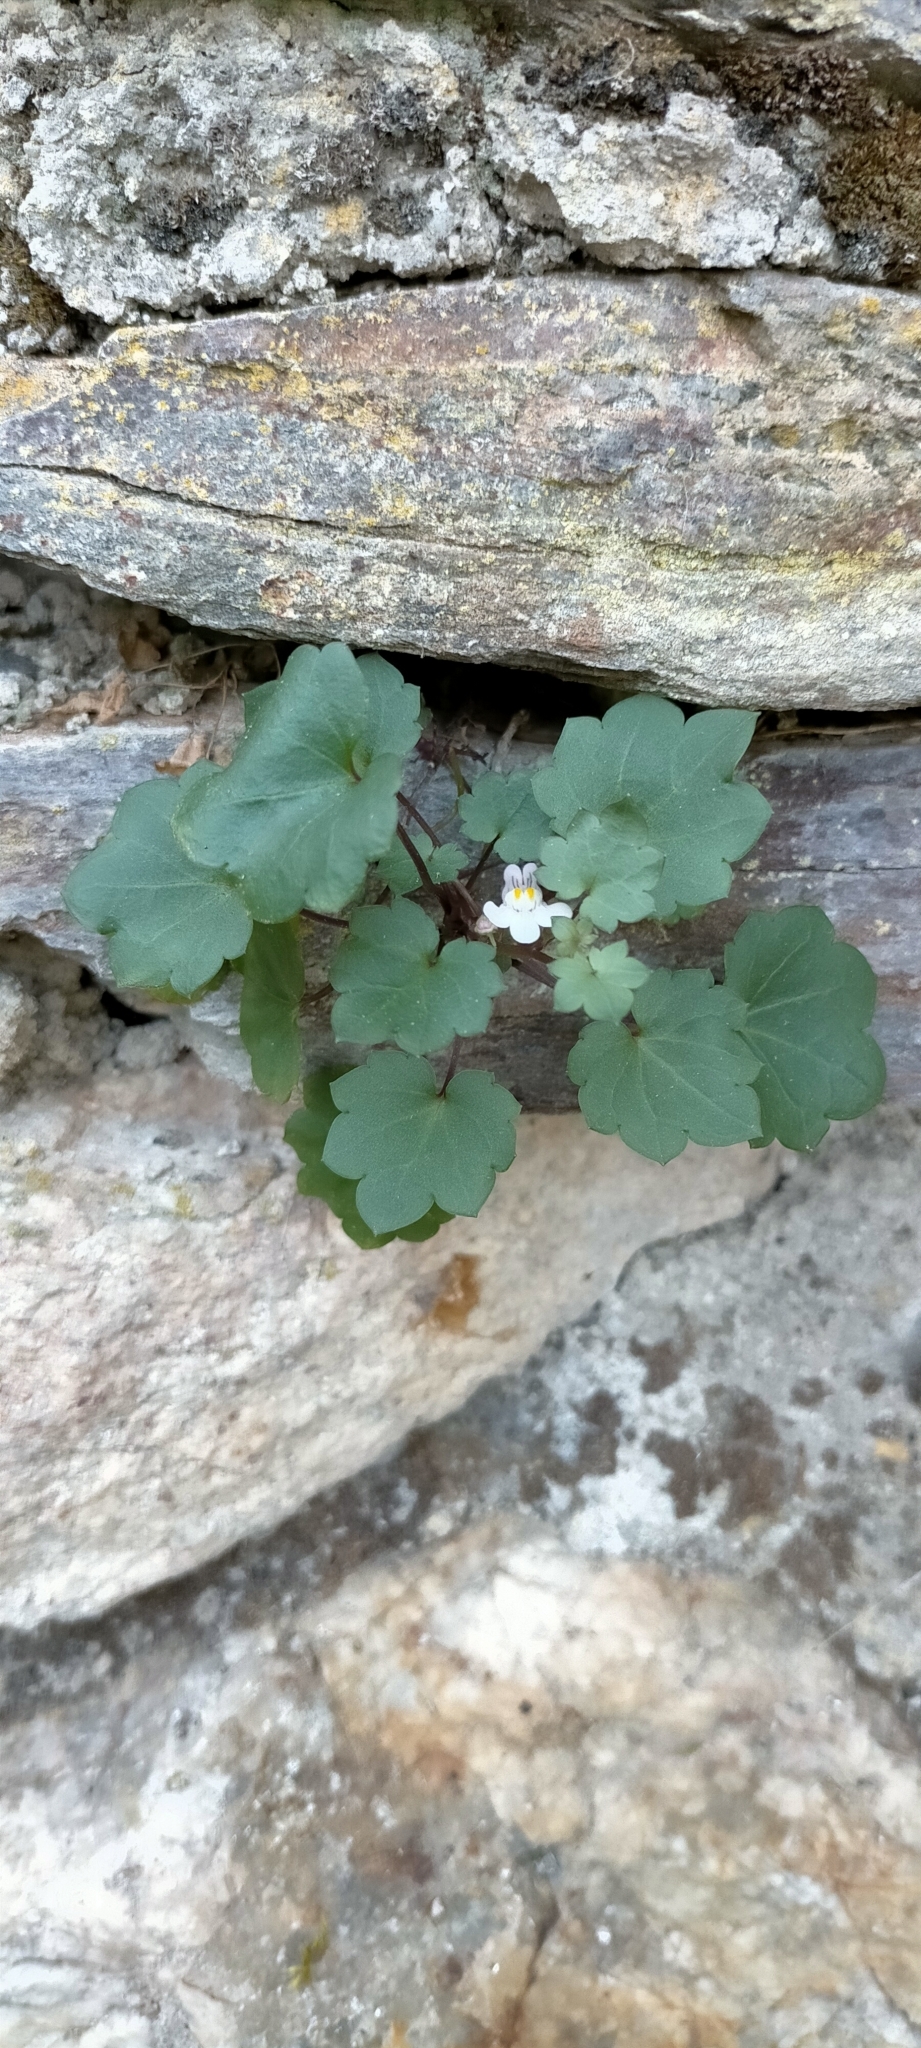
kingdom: Plantae
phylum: Tracheophyta
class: Magnoliopsida
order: Lamiales
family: Plantaginaceae
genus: Cymbalaria
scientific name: Cymbalaria muralis
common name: Ivy-leaved toadflax
